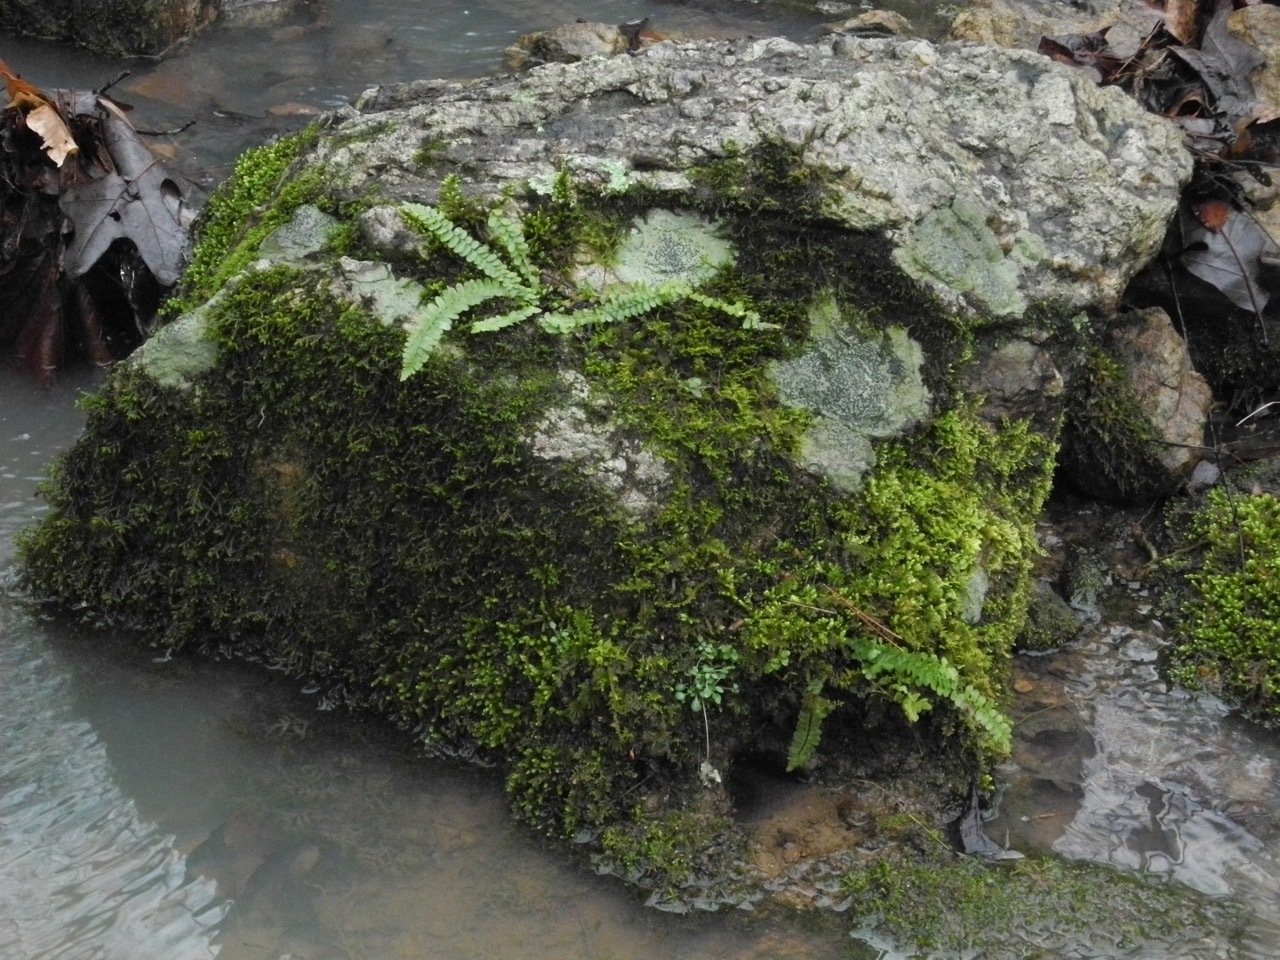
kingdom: Plantae
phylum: Tracheophyta
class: Polypodiopsida
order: Polypodiales
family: Aspleniaceae
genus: Asplenium
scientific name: Asplenium platyneuron
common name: Ebony spleenwort
